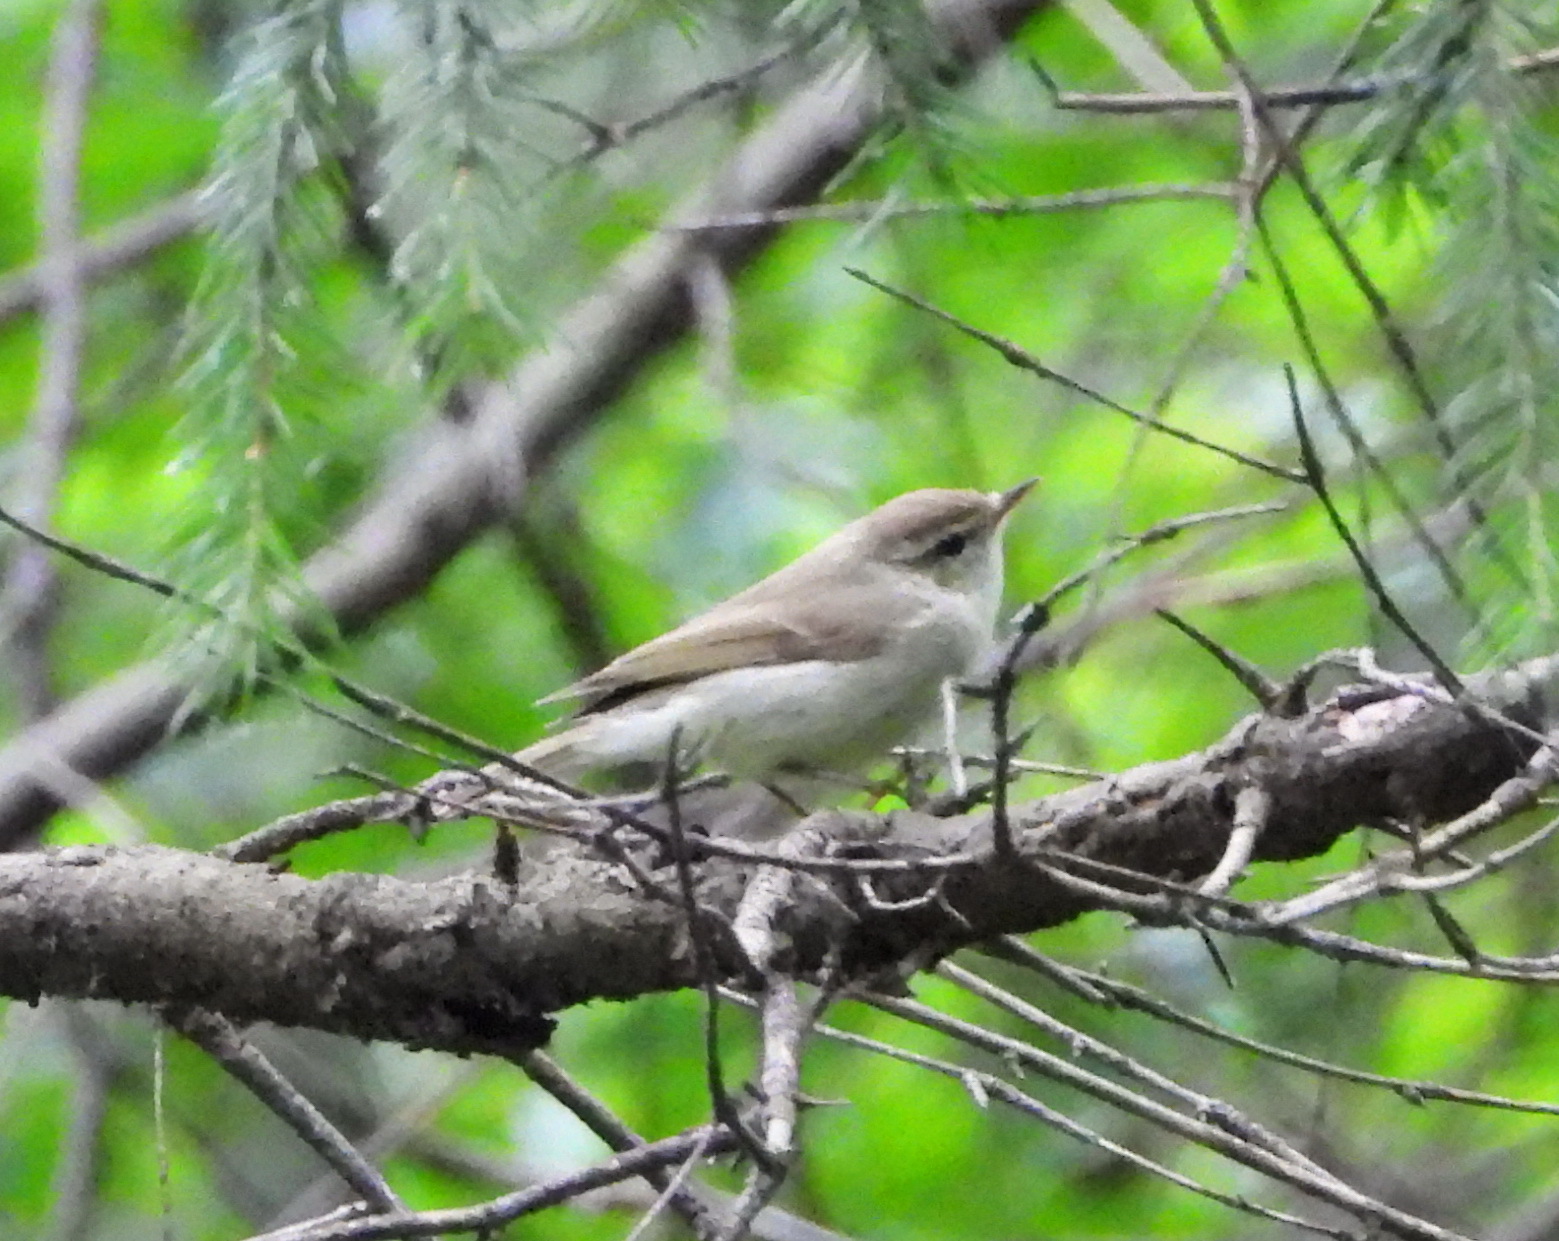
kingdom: Animalia
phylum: Chordata
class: Aves
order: Passeriformes
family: Phylloscopidae
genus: Phylloscopus
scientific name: Phylloscopus trochiloides
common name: Greenish warbler
